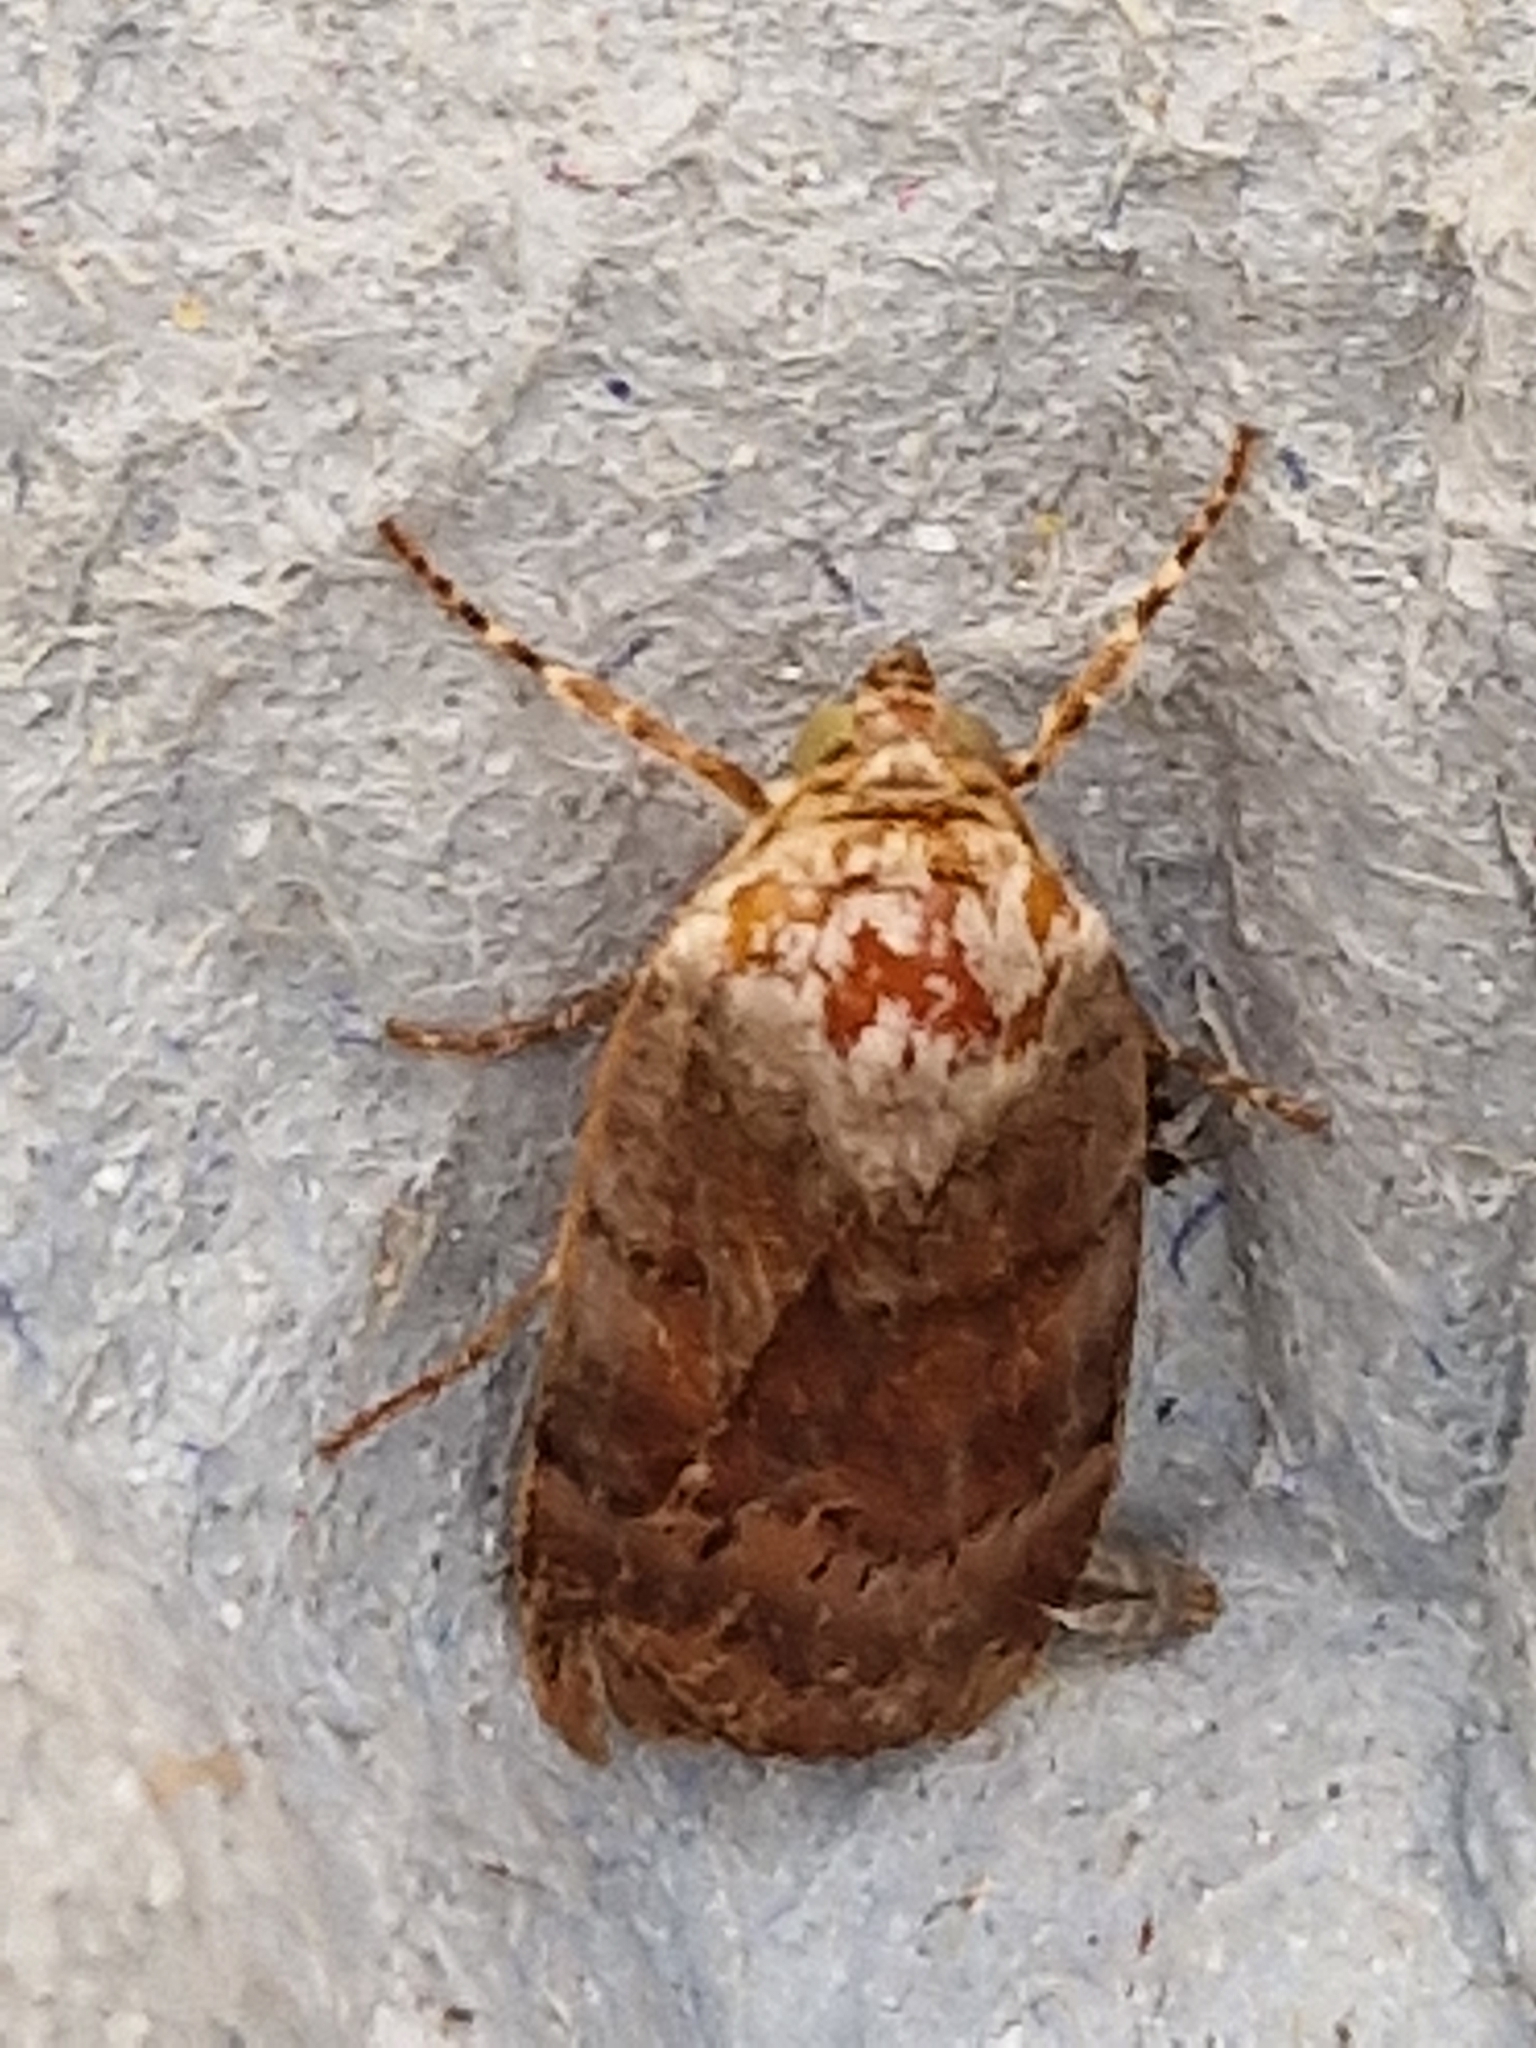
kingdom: Animalia
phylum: Arthropoda
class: Insecta
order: Lepidoptera
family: Noctuidae
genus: Noctua
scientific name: Noctua
